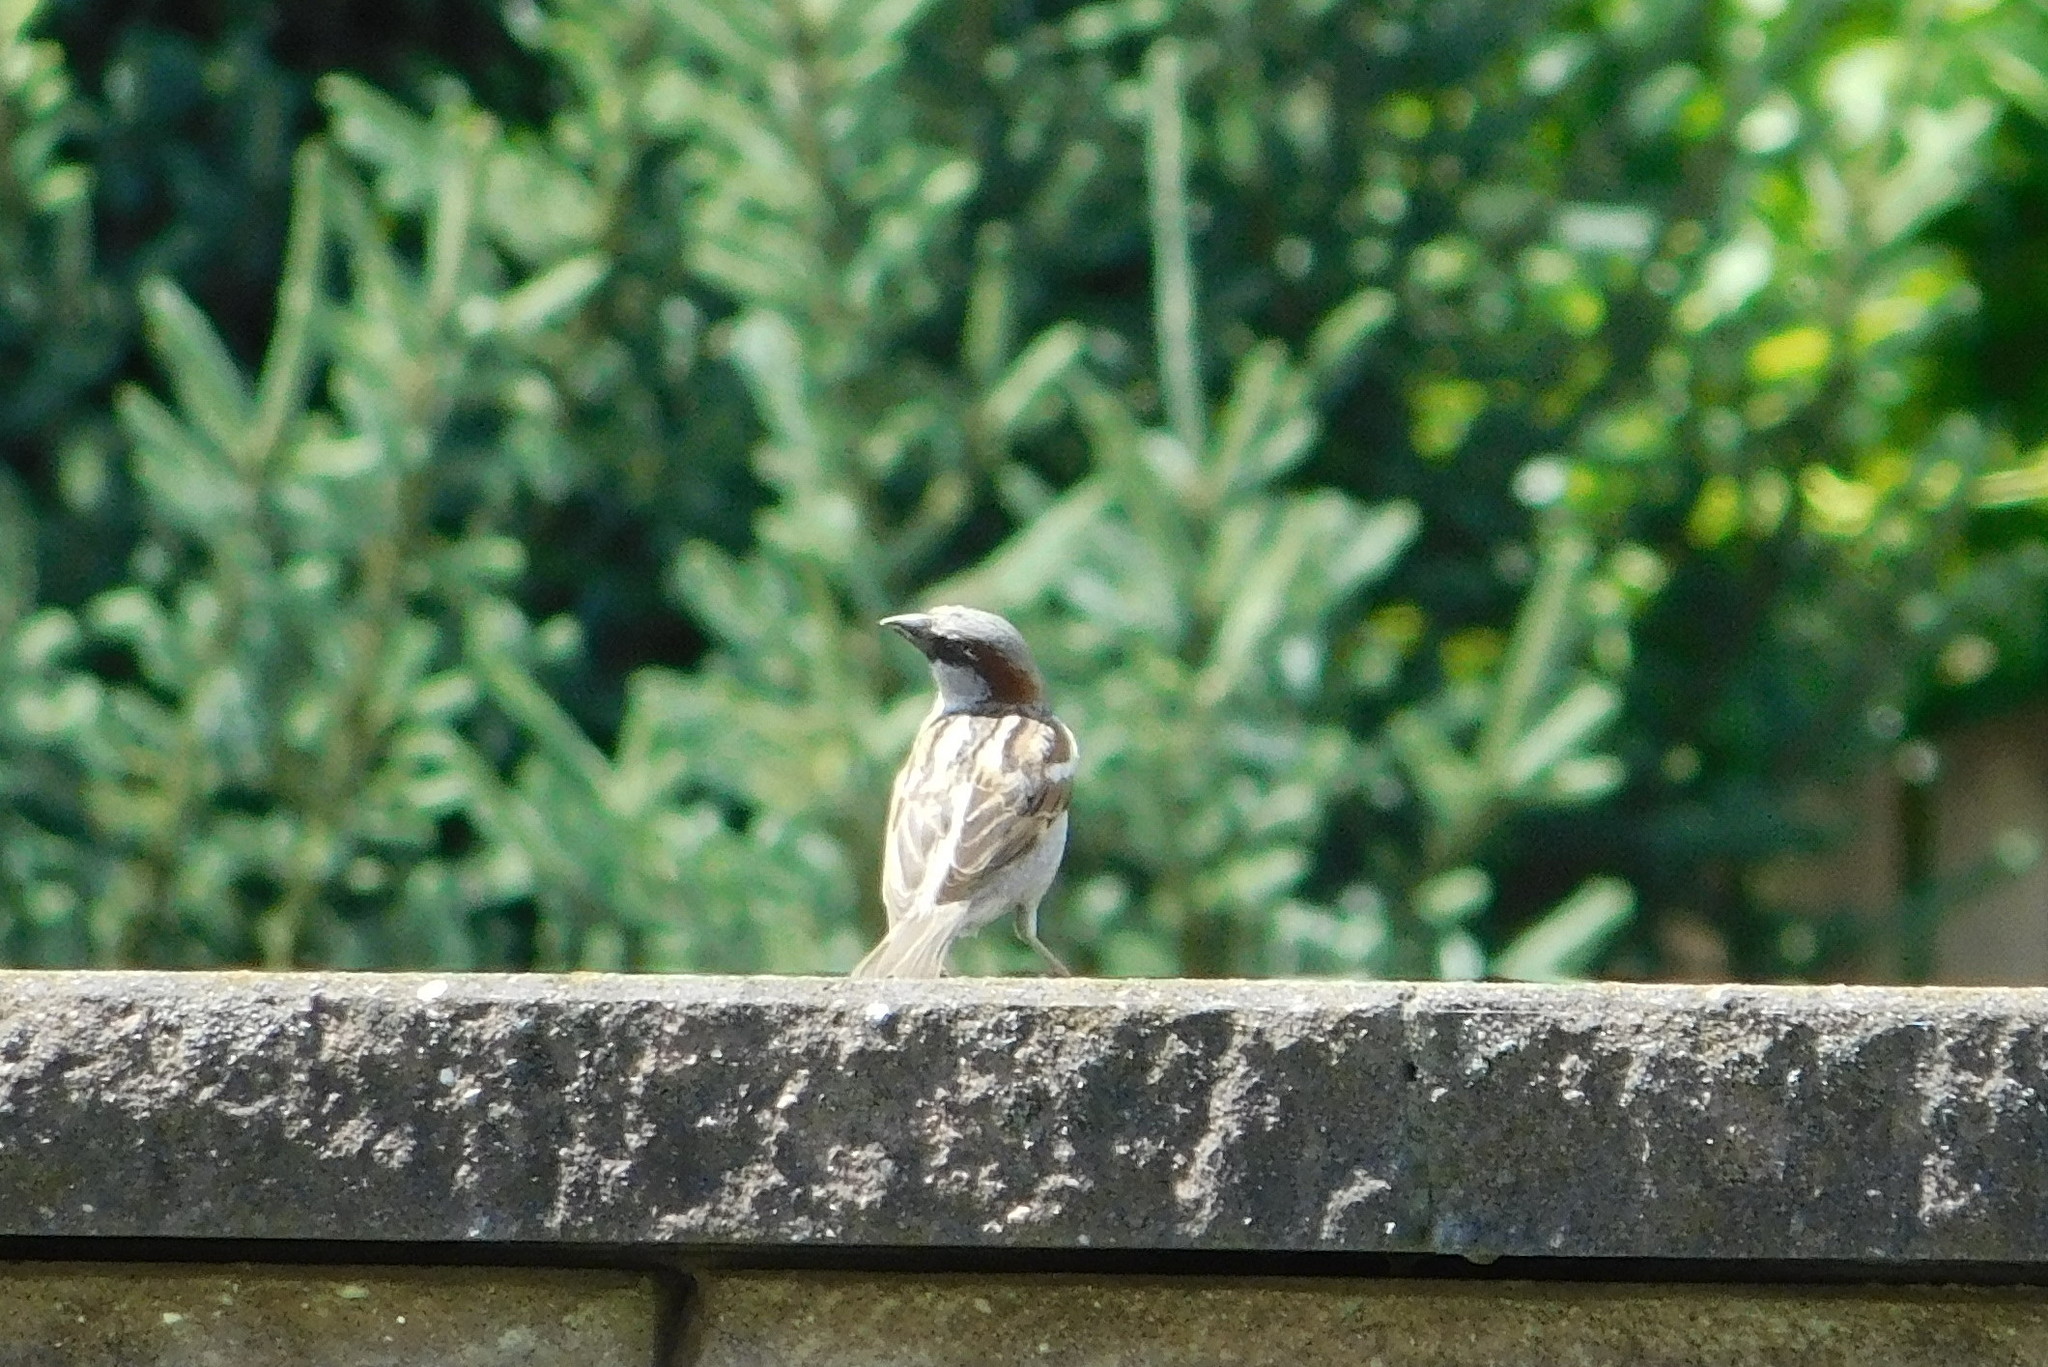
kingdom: Animalia
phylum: Chordata
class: Aves
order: Passeriformes
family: Passeridae
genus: Passer
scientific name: Passer domesticus
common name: House sparrow
